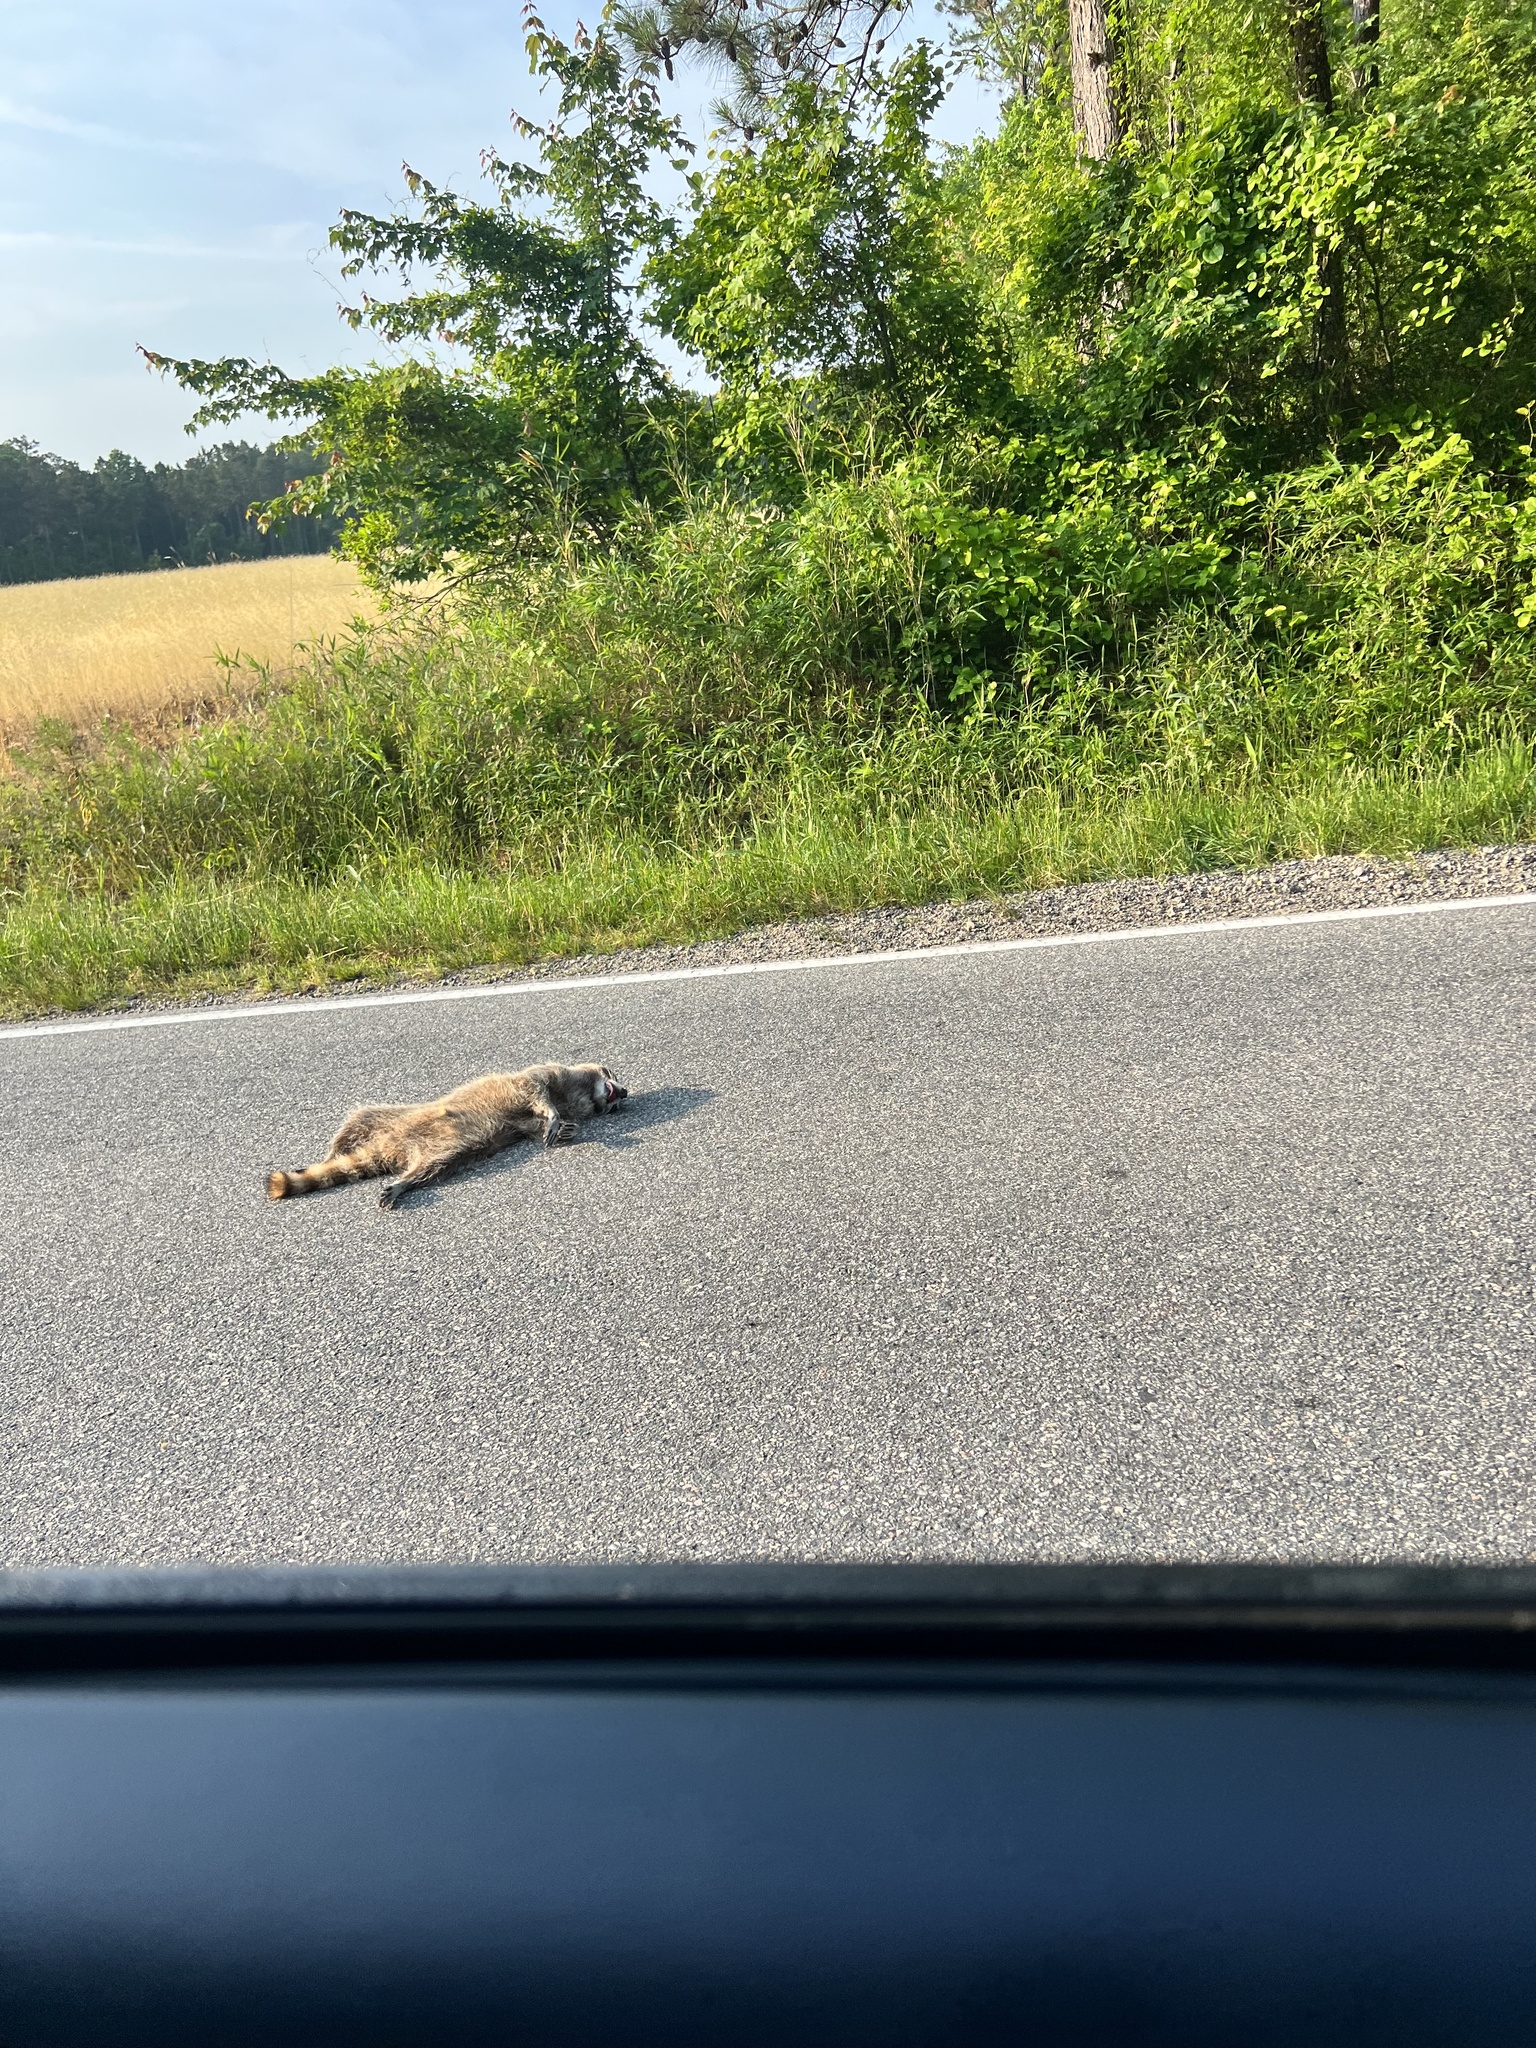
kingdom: Animalia
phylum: Chordata
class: Mammalia
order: Carnivora
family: Procyonidae
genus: Procyon
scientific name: Procyon lotor
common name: Raccoon
